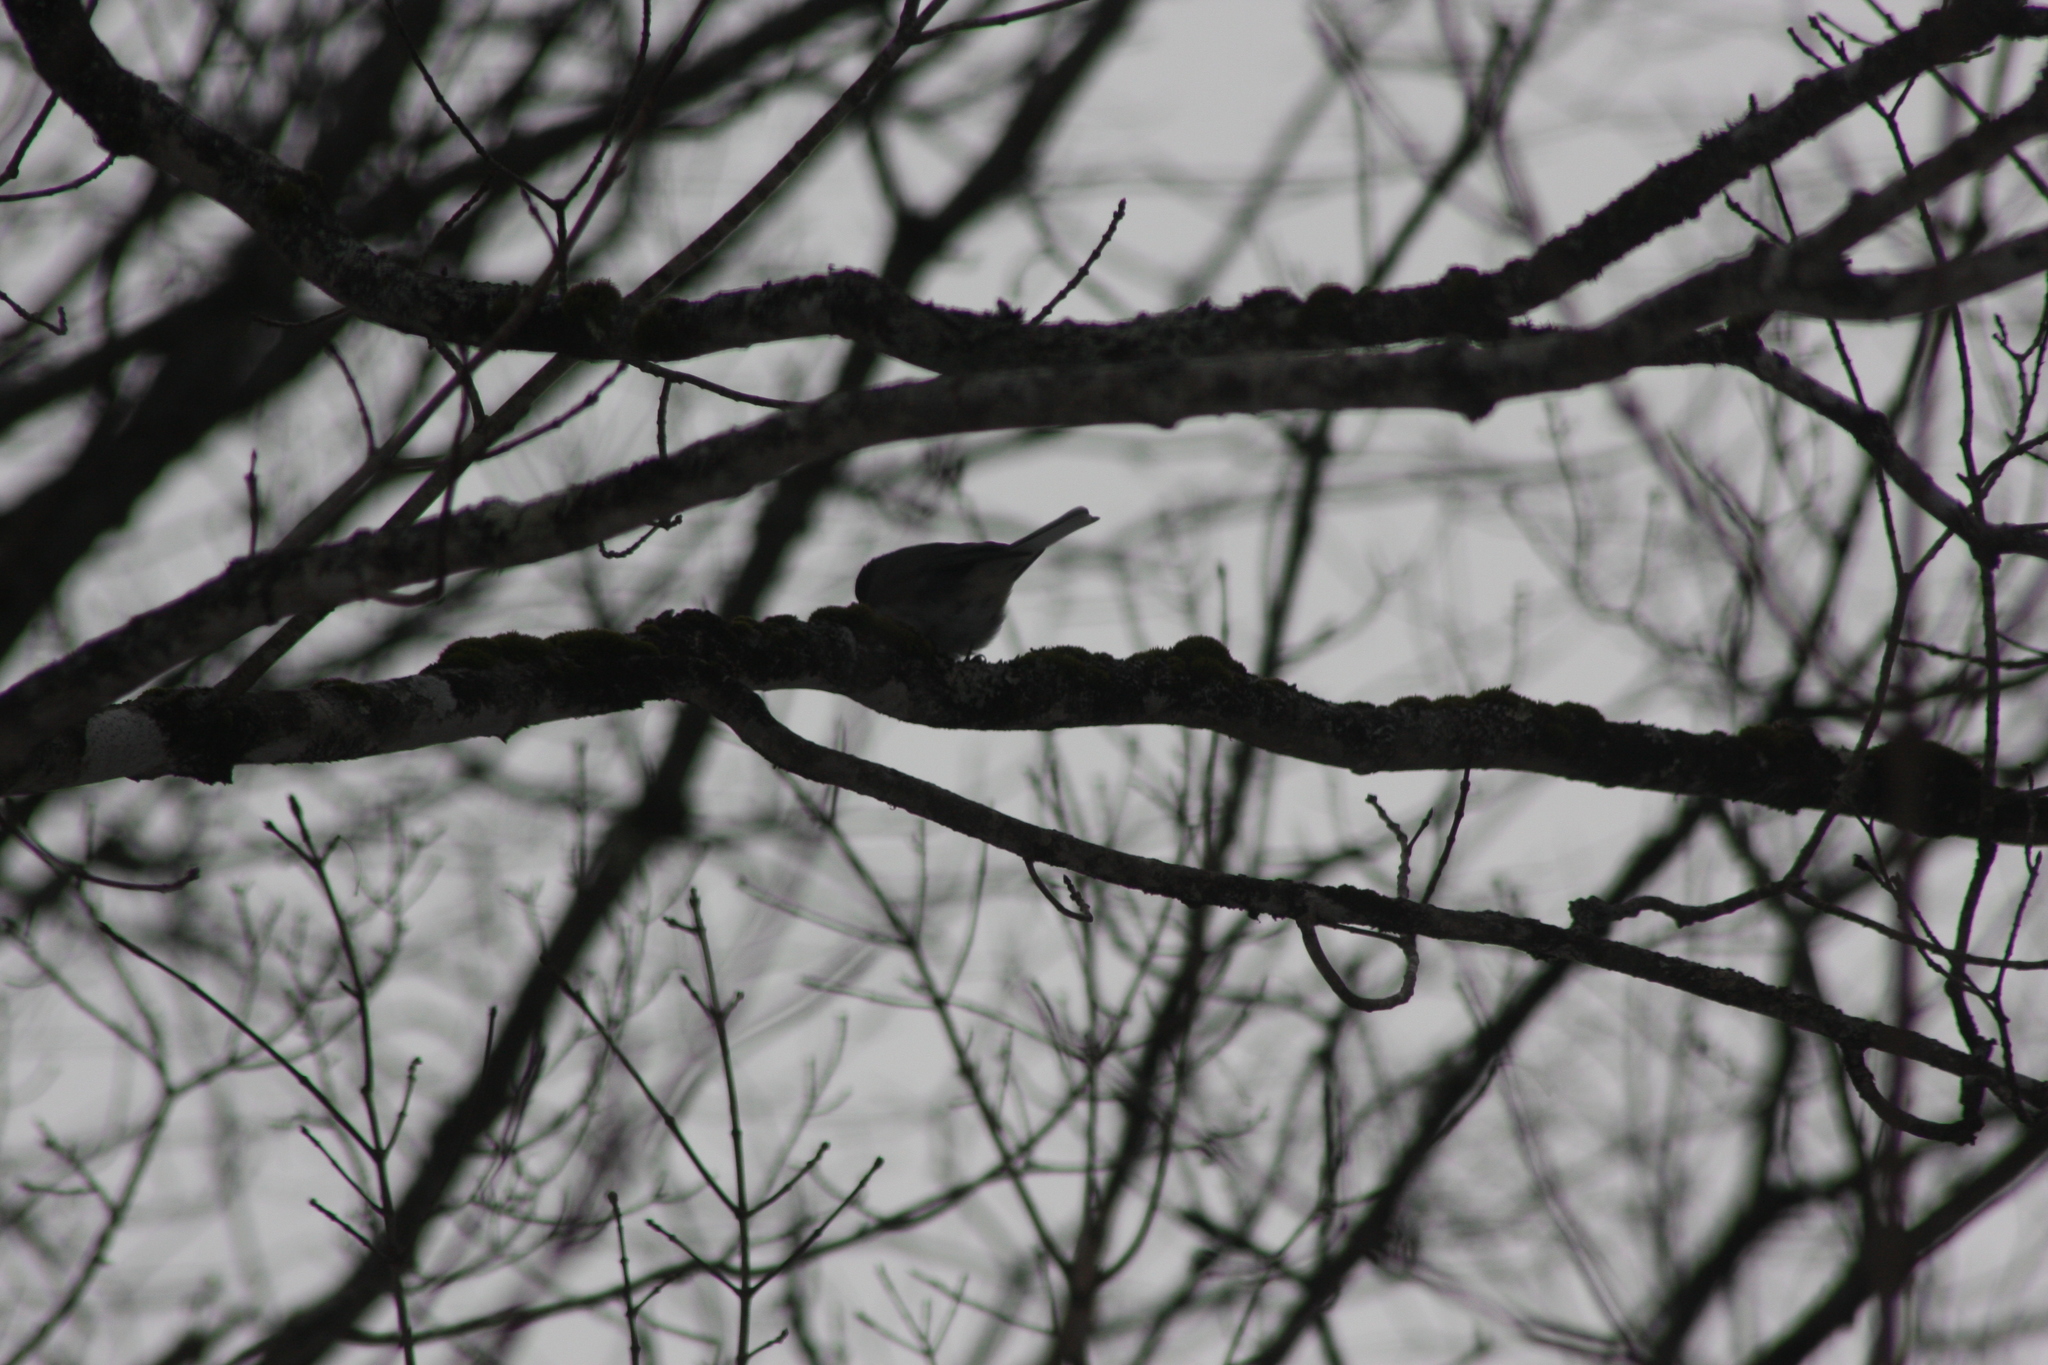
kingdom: Animalia
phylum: Chordata
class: Aves
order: Passeriformes
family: Passerellidae
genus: Junco
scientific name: Junco hyemalis
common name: Dark-eyed junco
